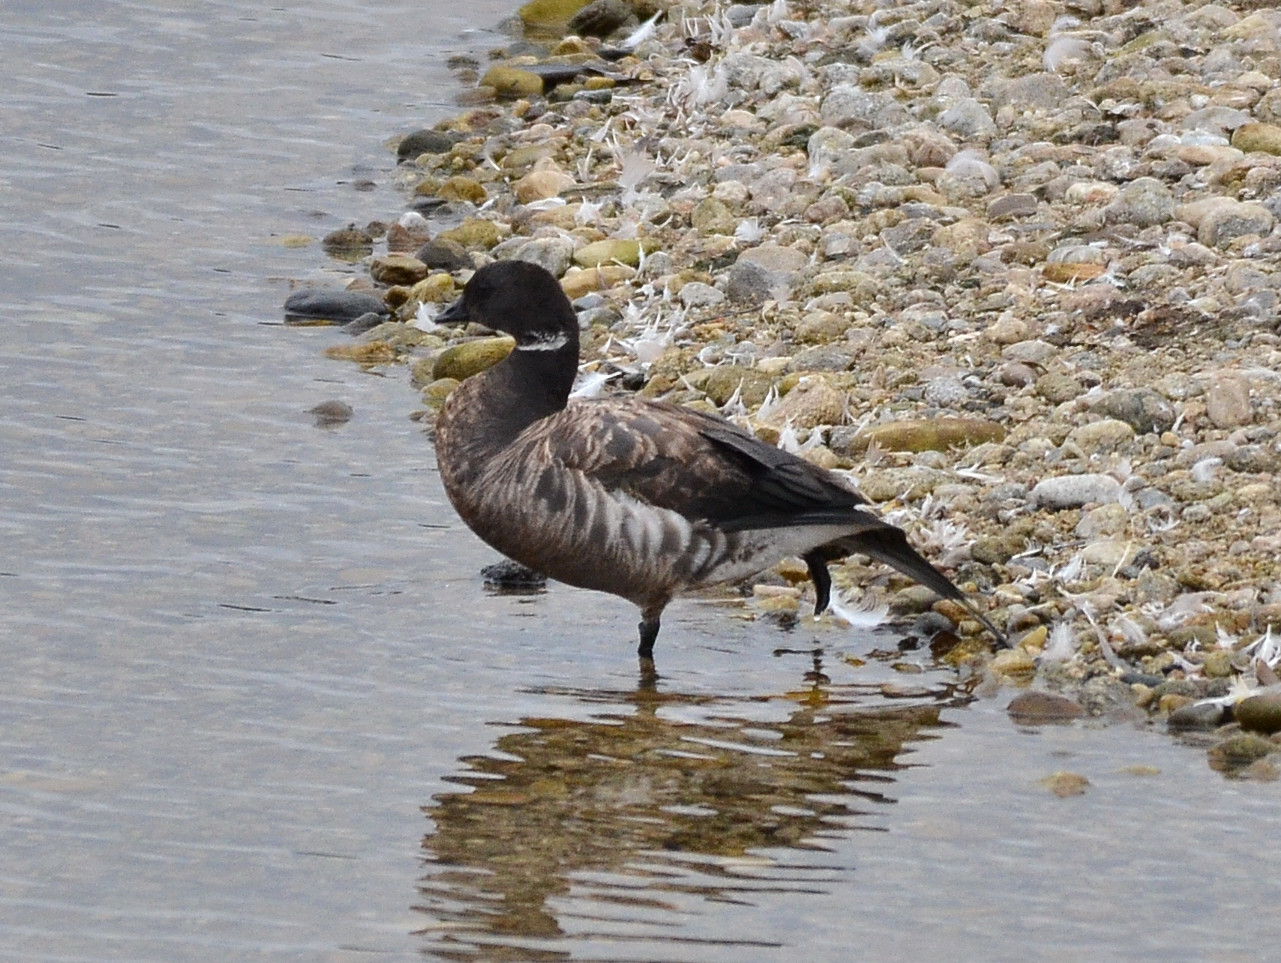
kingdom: Animalia
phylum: Chordata
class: Aves
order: Anseriformes
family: Anatidae
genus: Branta
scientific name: Branta bernicla
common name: Brant goose
